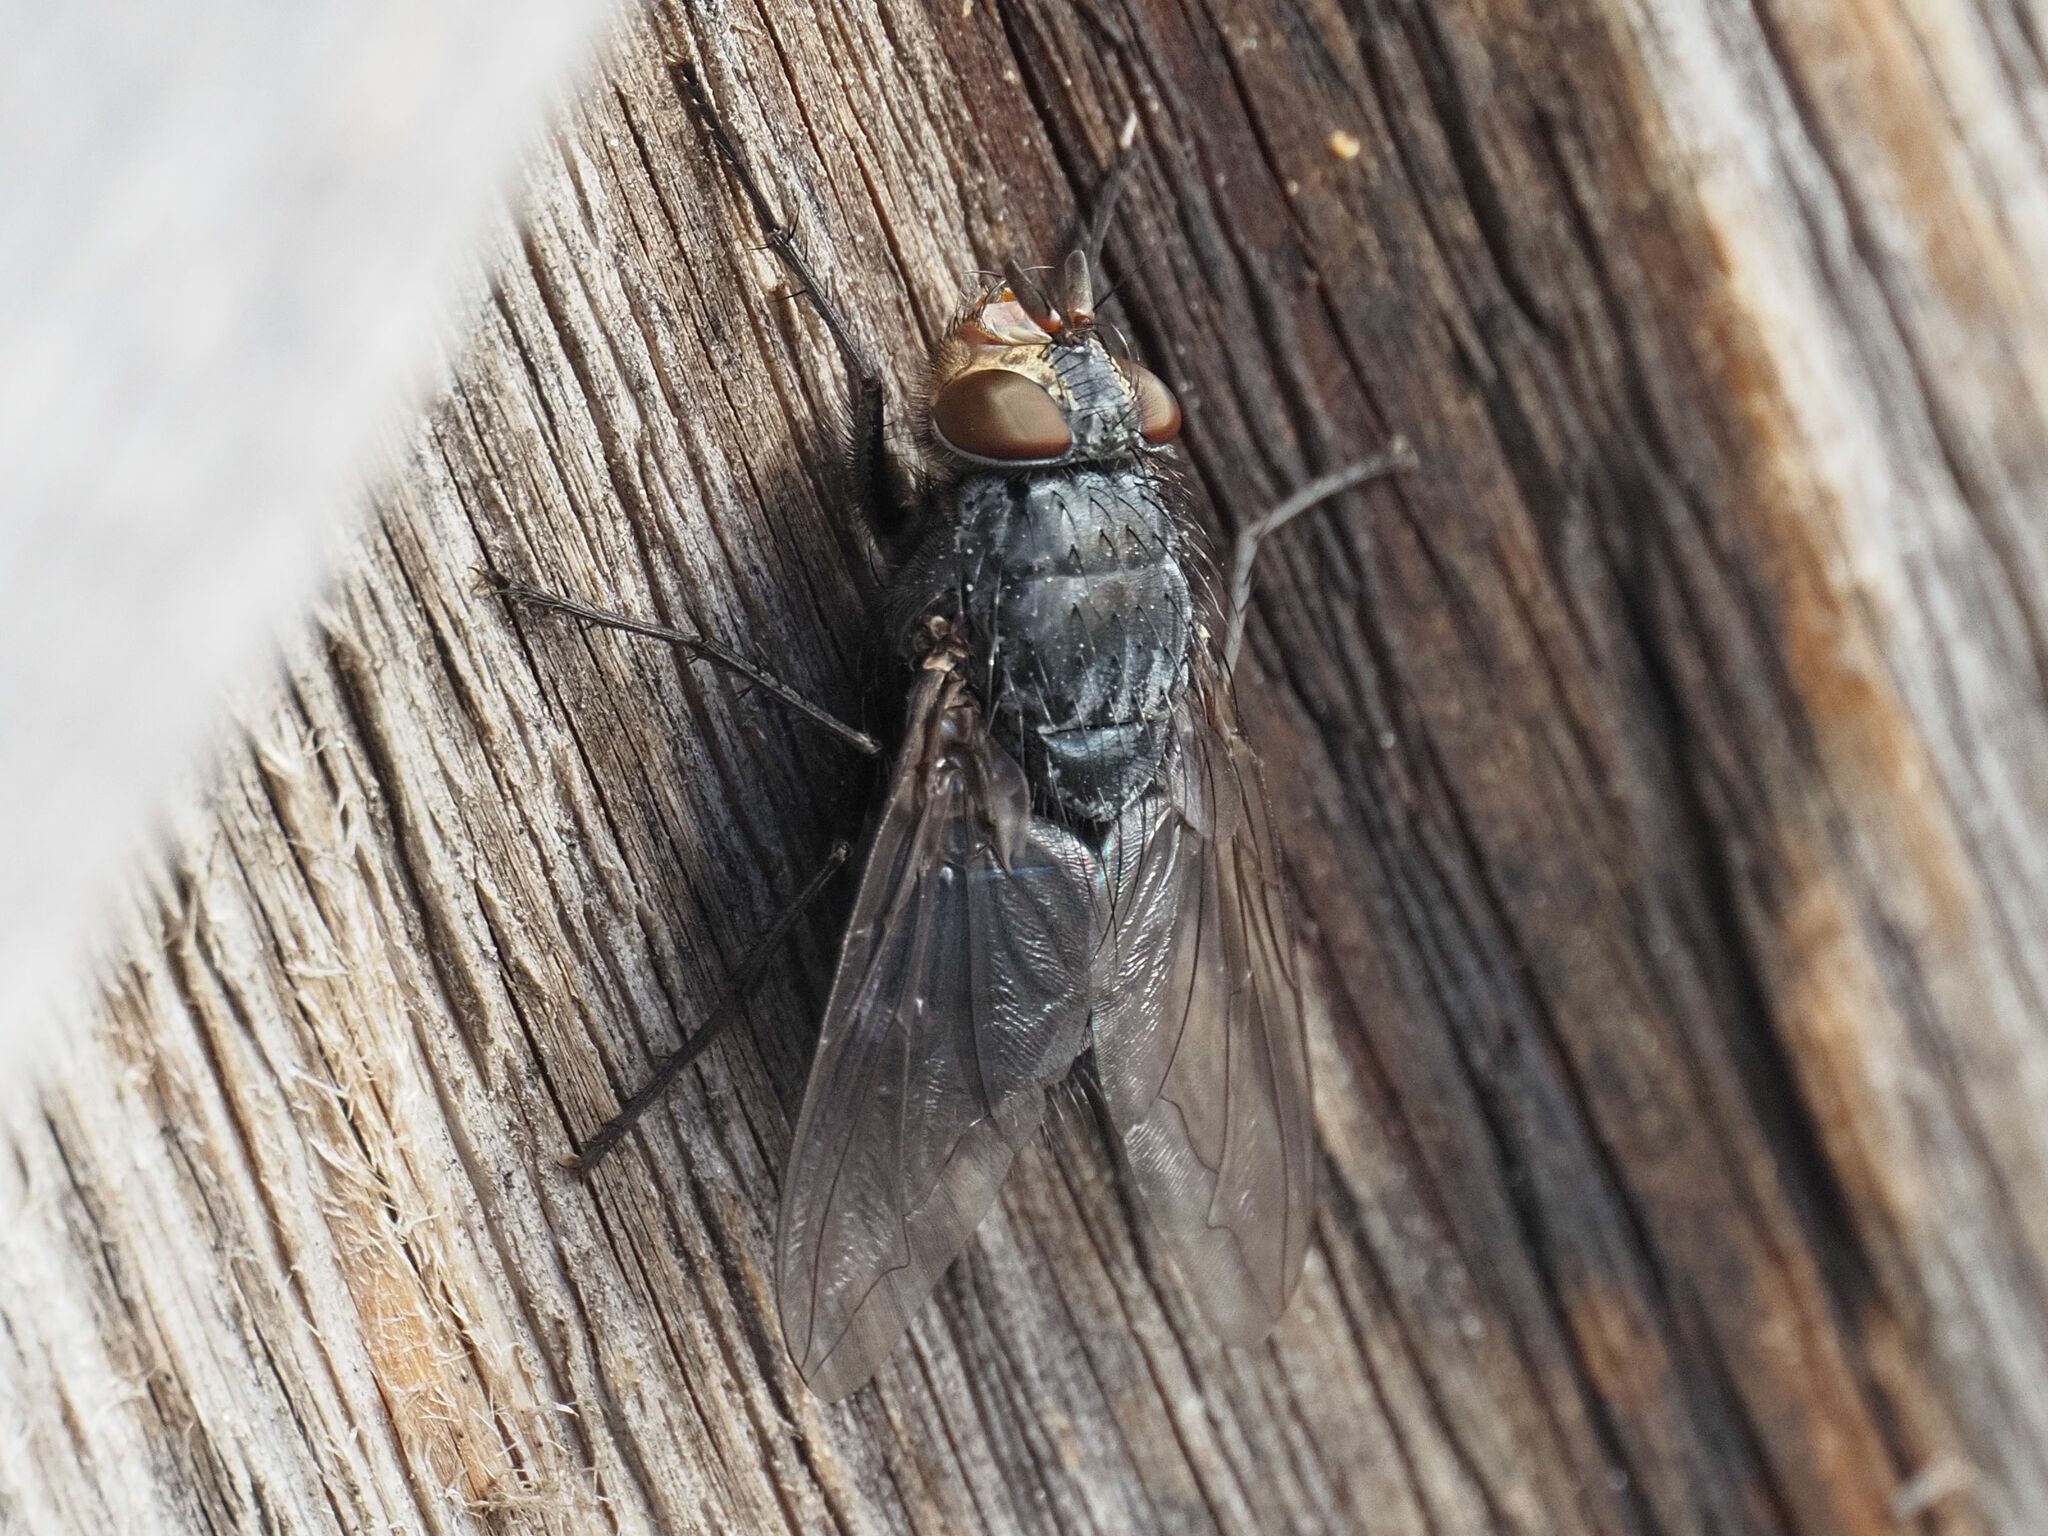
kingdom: Animalia
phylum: Arthropoda
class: Insecta
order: Diptera
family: Calliphoridae
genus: Calliphora
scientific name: Calliphora vicina
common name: Common blow flie
